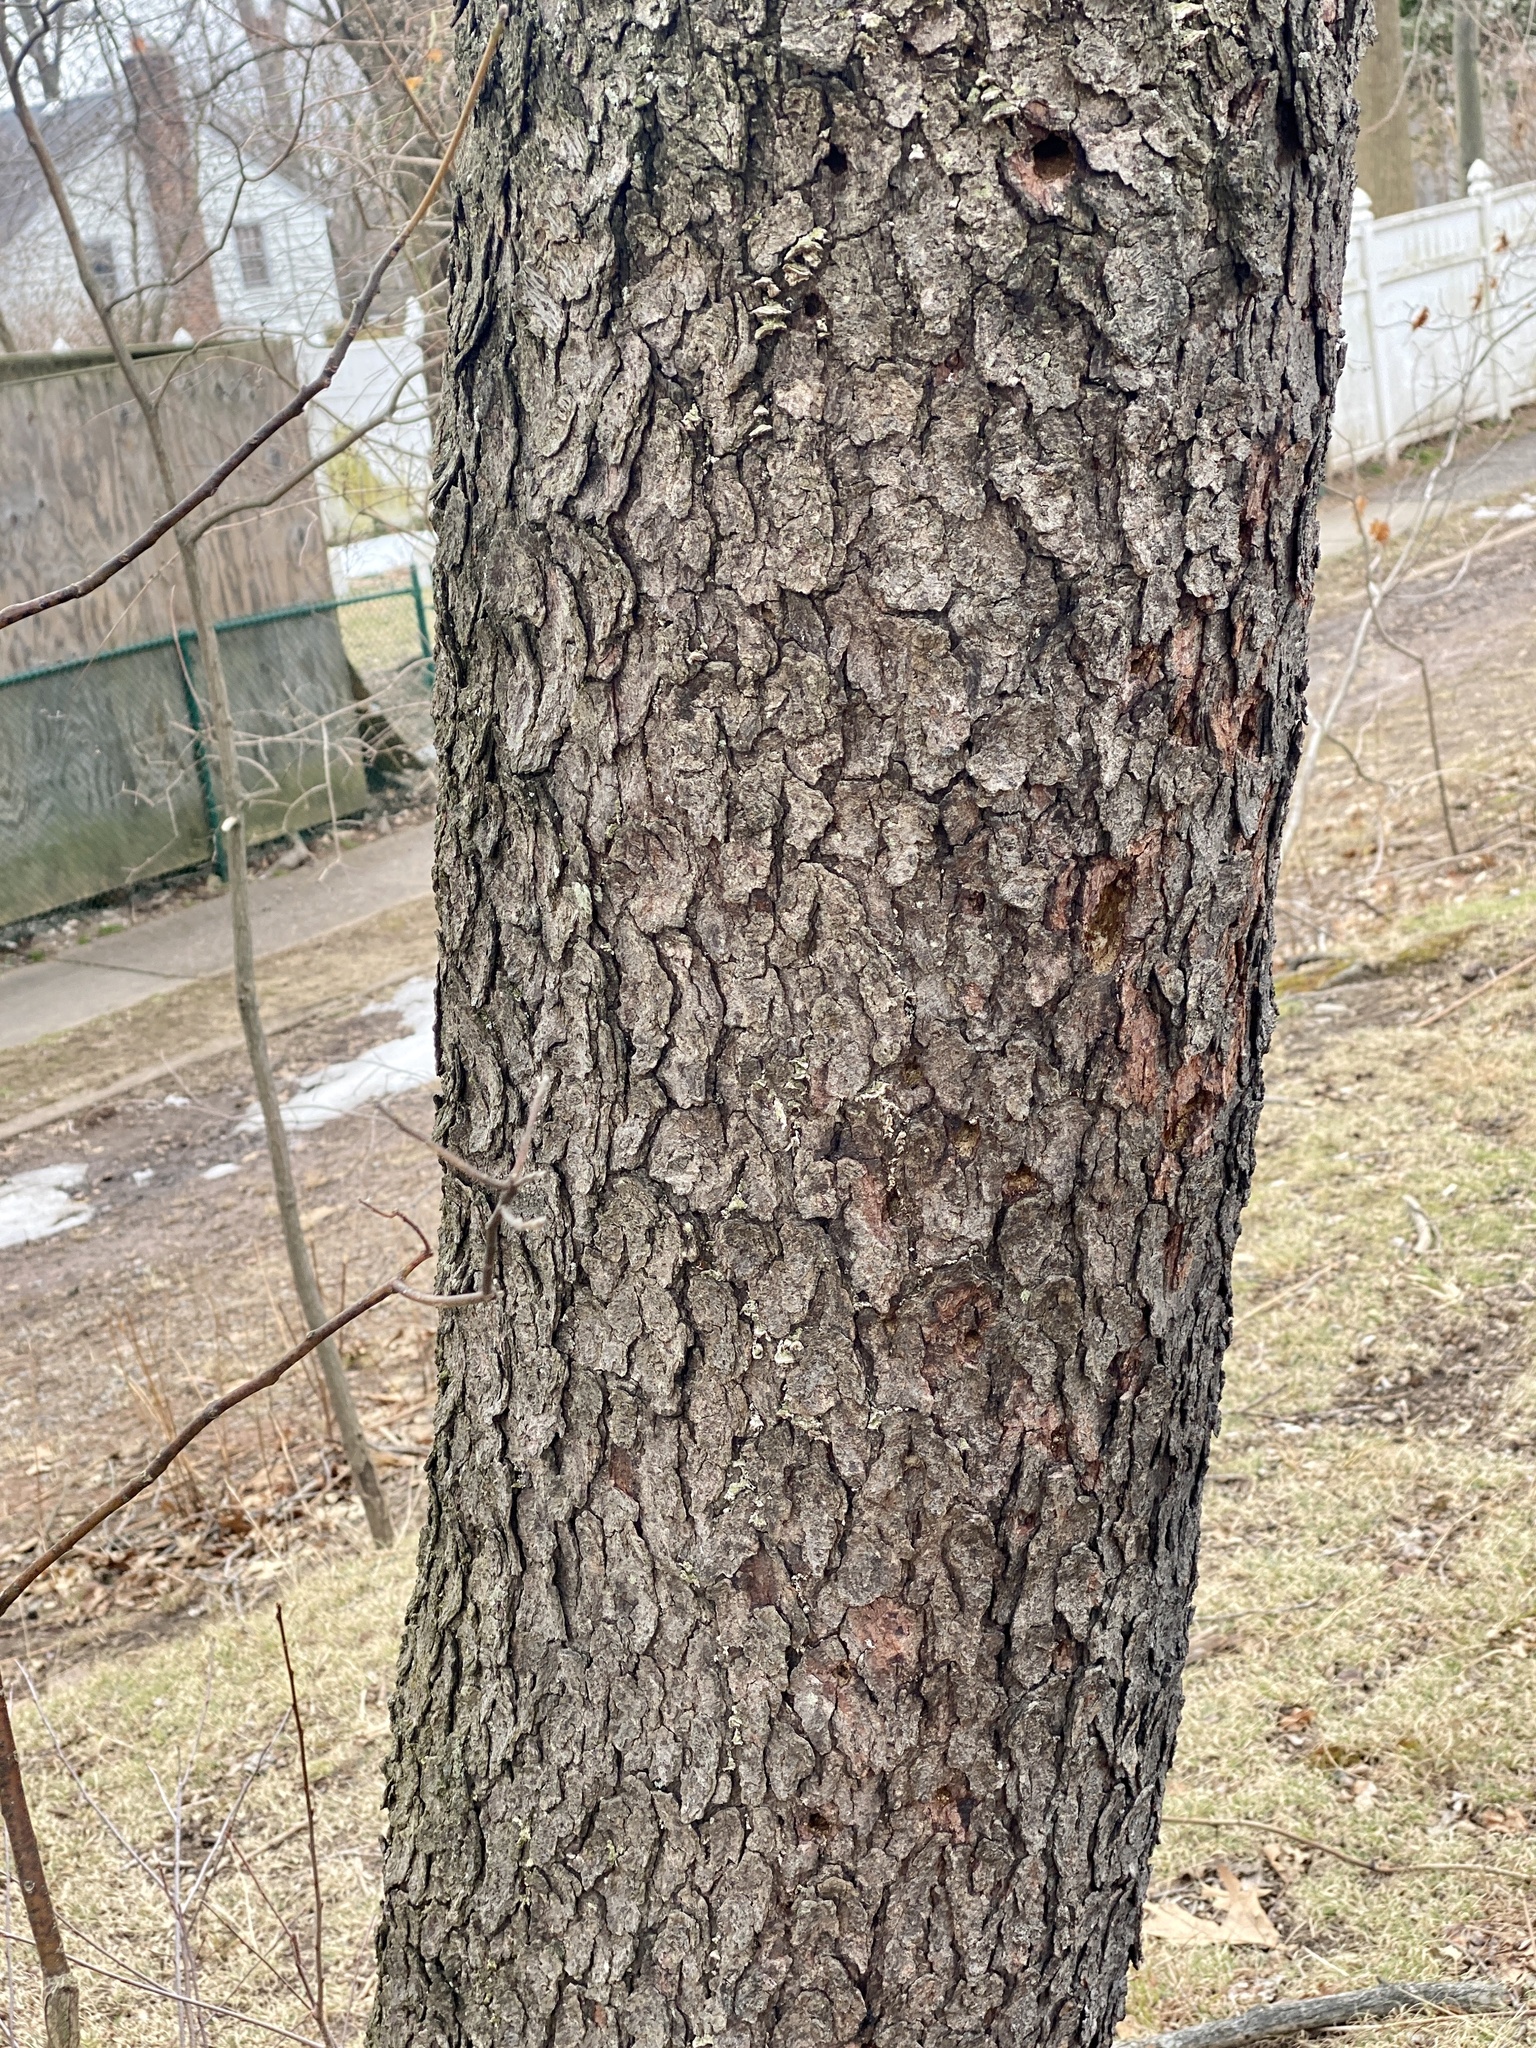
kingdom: Plantae
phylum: Tracheophyta
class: Magnoliopsida
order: Rosales
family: Rosaceae
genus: Prunus
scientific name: Prunus serotina
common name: Black cherry
